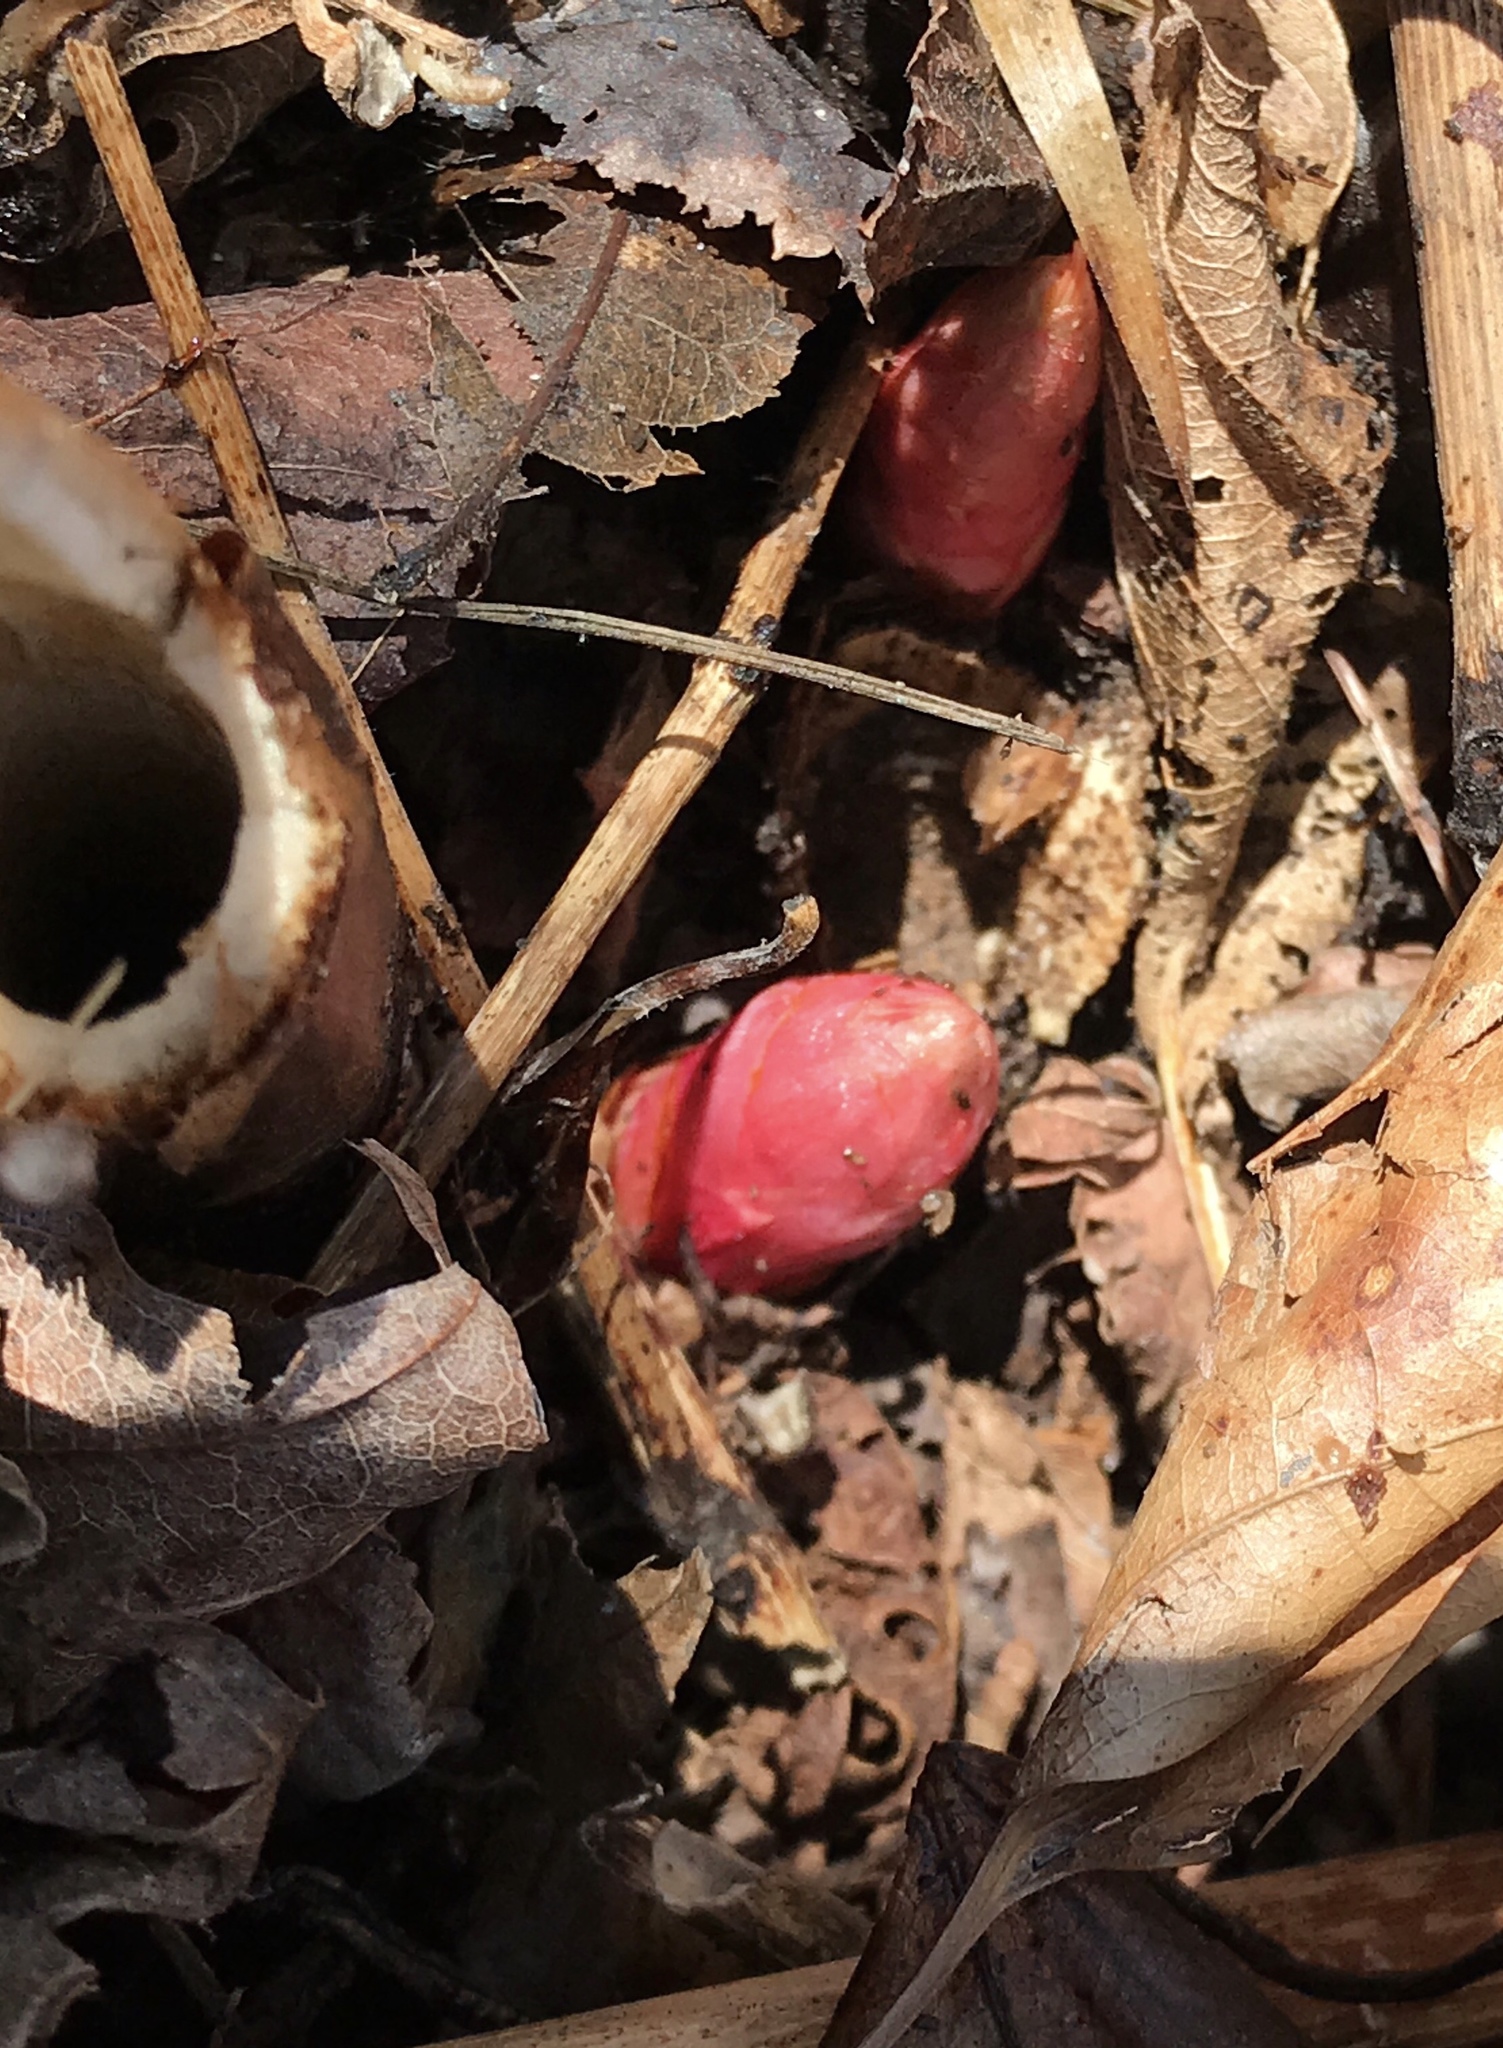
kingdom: Plantae
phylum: Tracheophyta
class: Magnoliopsida
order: Caryophyllales
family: Polygonaceae
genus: Reynoutria
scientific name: Reynoutria japonica
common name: Japanese knotweed
